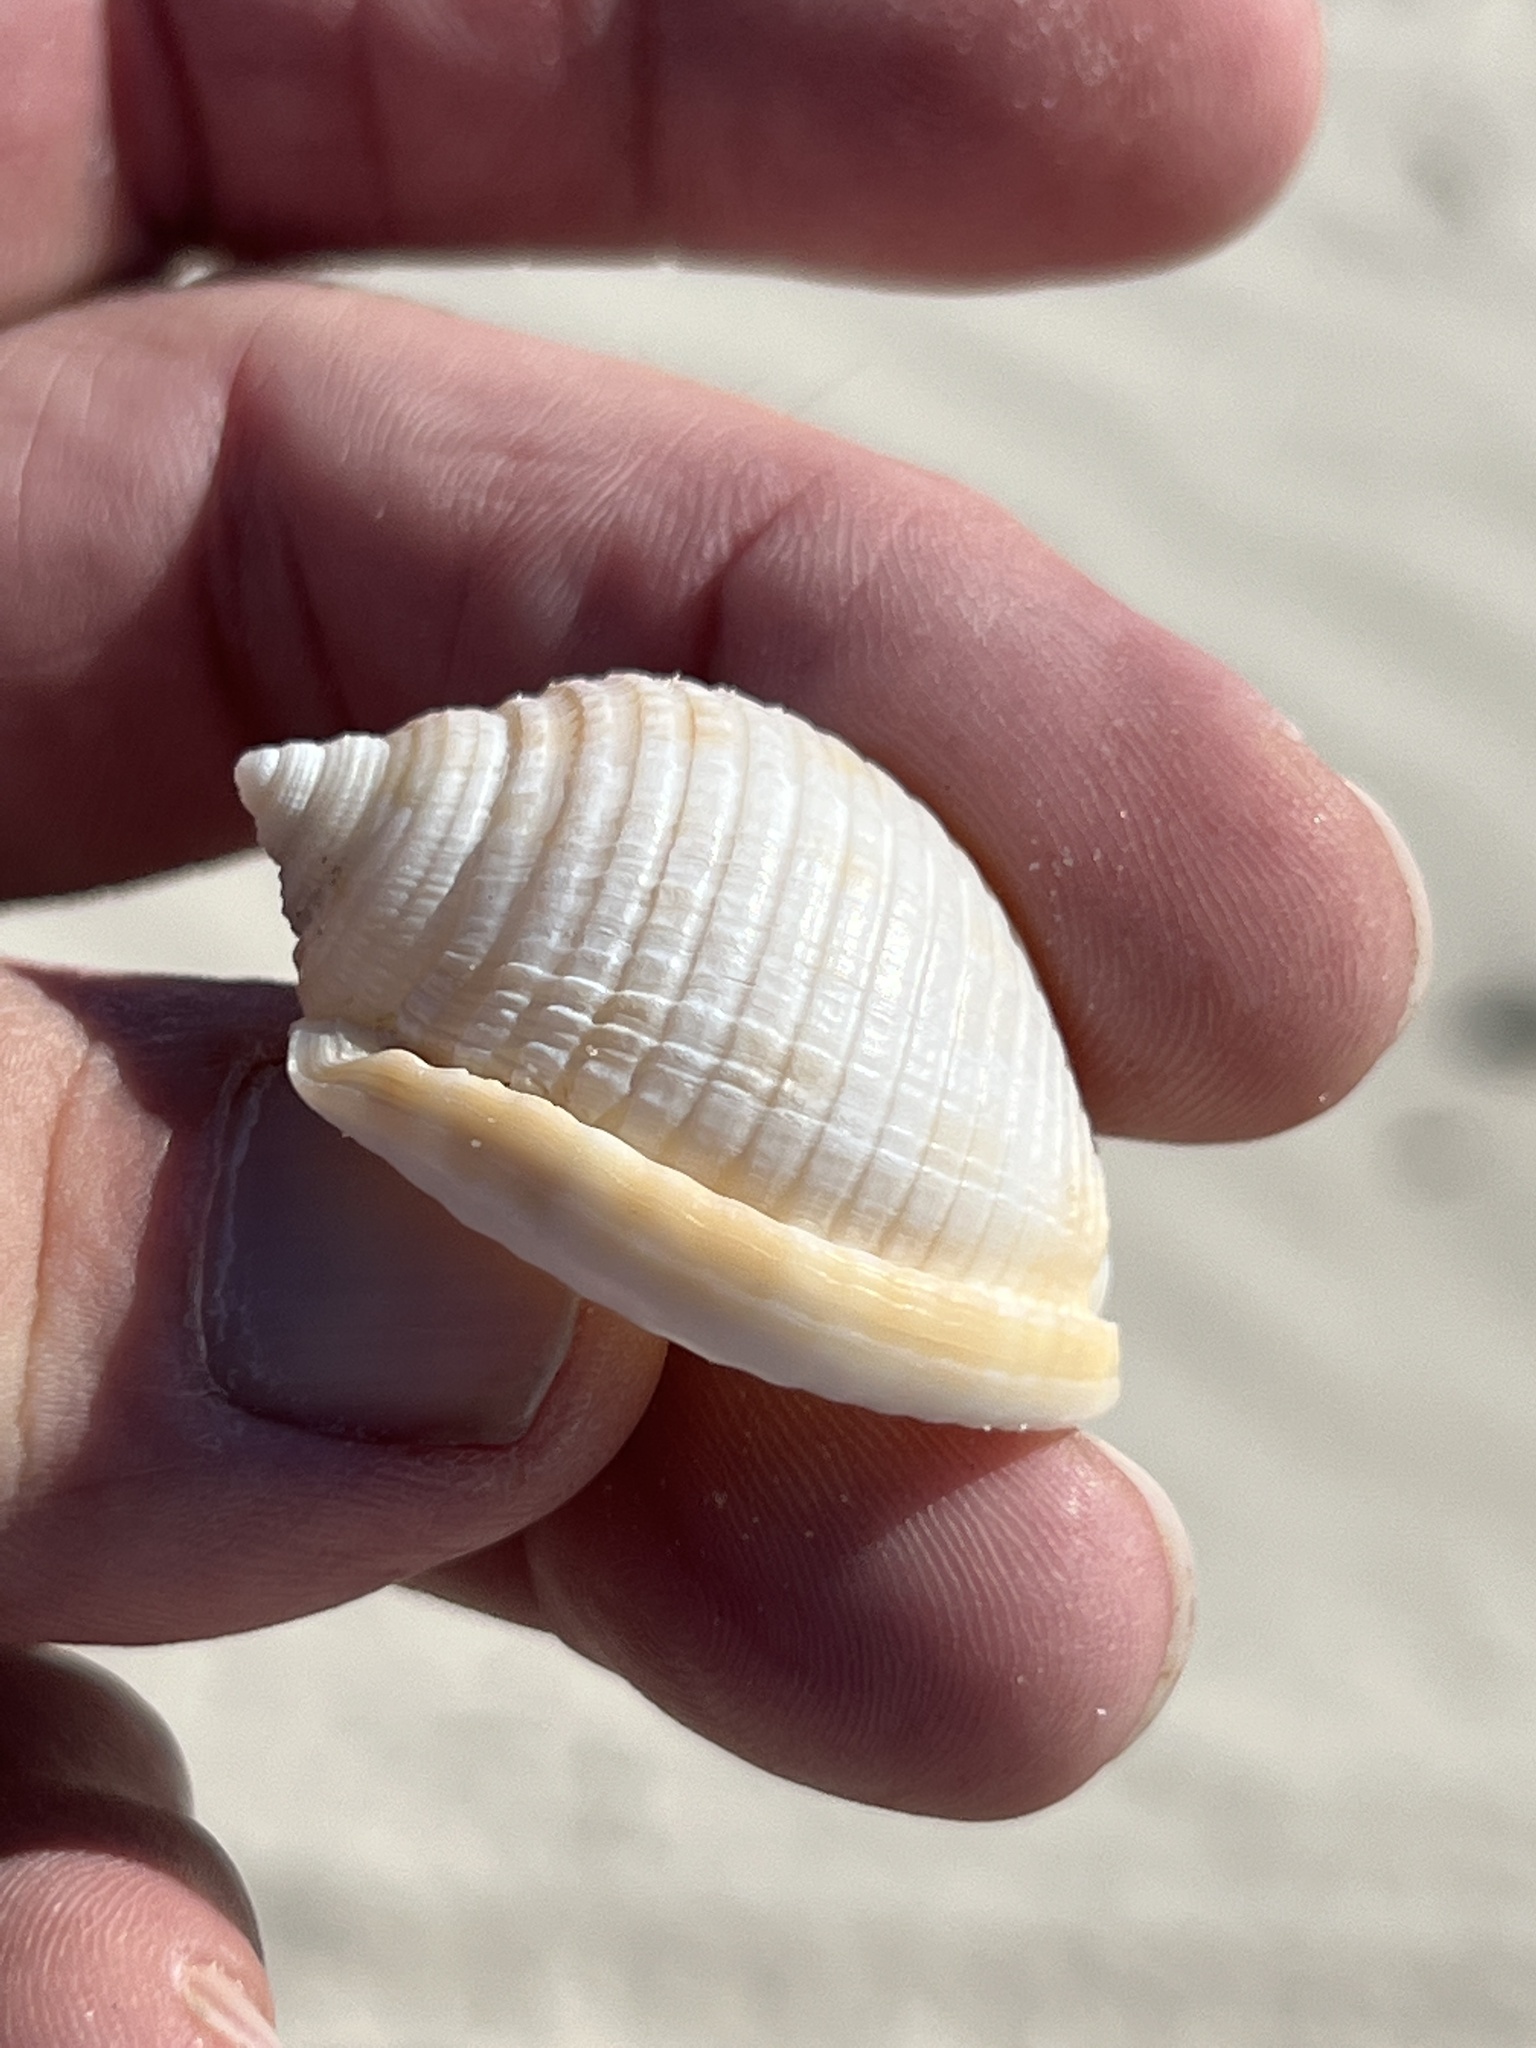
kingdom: Animalia
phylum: Mollusca
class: Gastropoda
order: Littorinimorpha
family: Cassidae
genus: Semicassis
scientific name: Semicassis granulata
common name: Scotch bonnet
